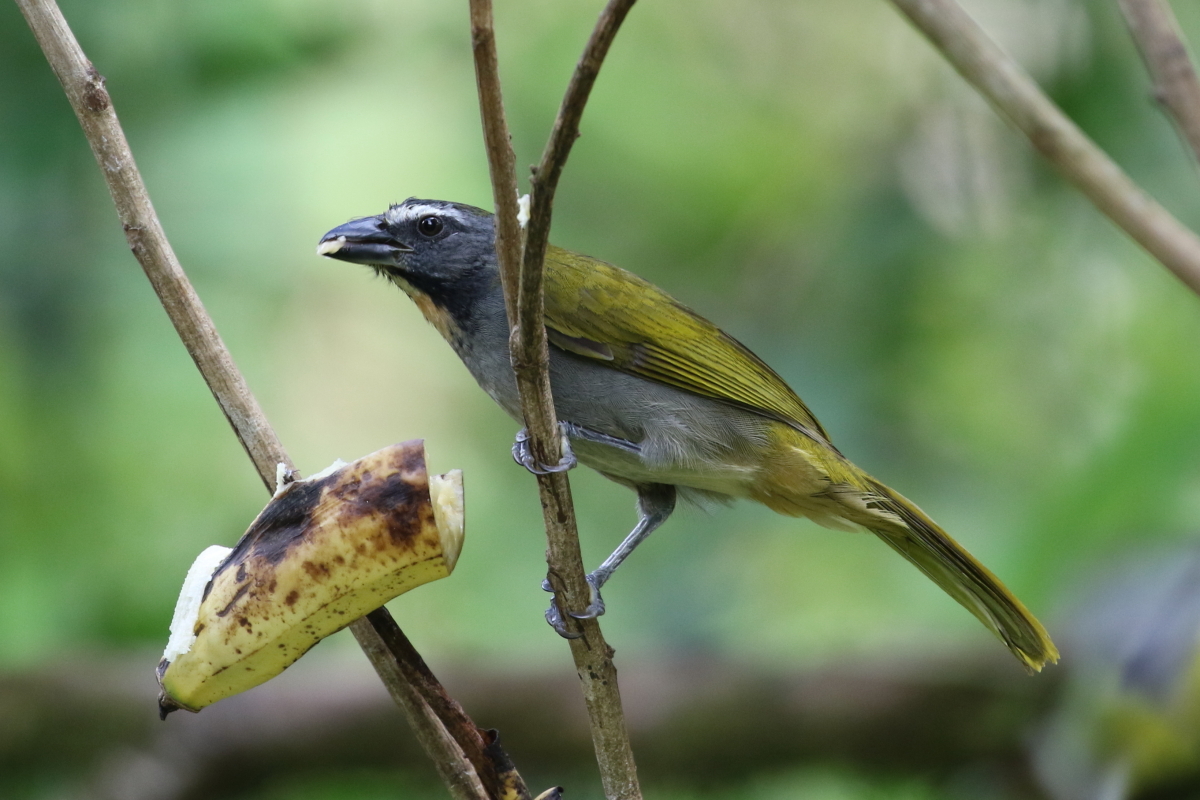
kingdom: Animalia
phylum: Chordata
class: Aves
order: Passeriformes
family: Thraupidae
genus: Saltator
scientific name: Saltator maximus
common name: Buff-throated saltator
